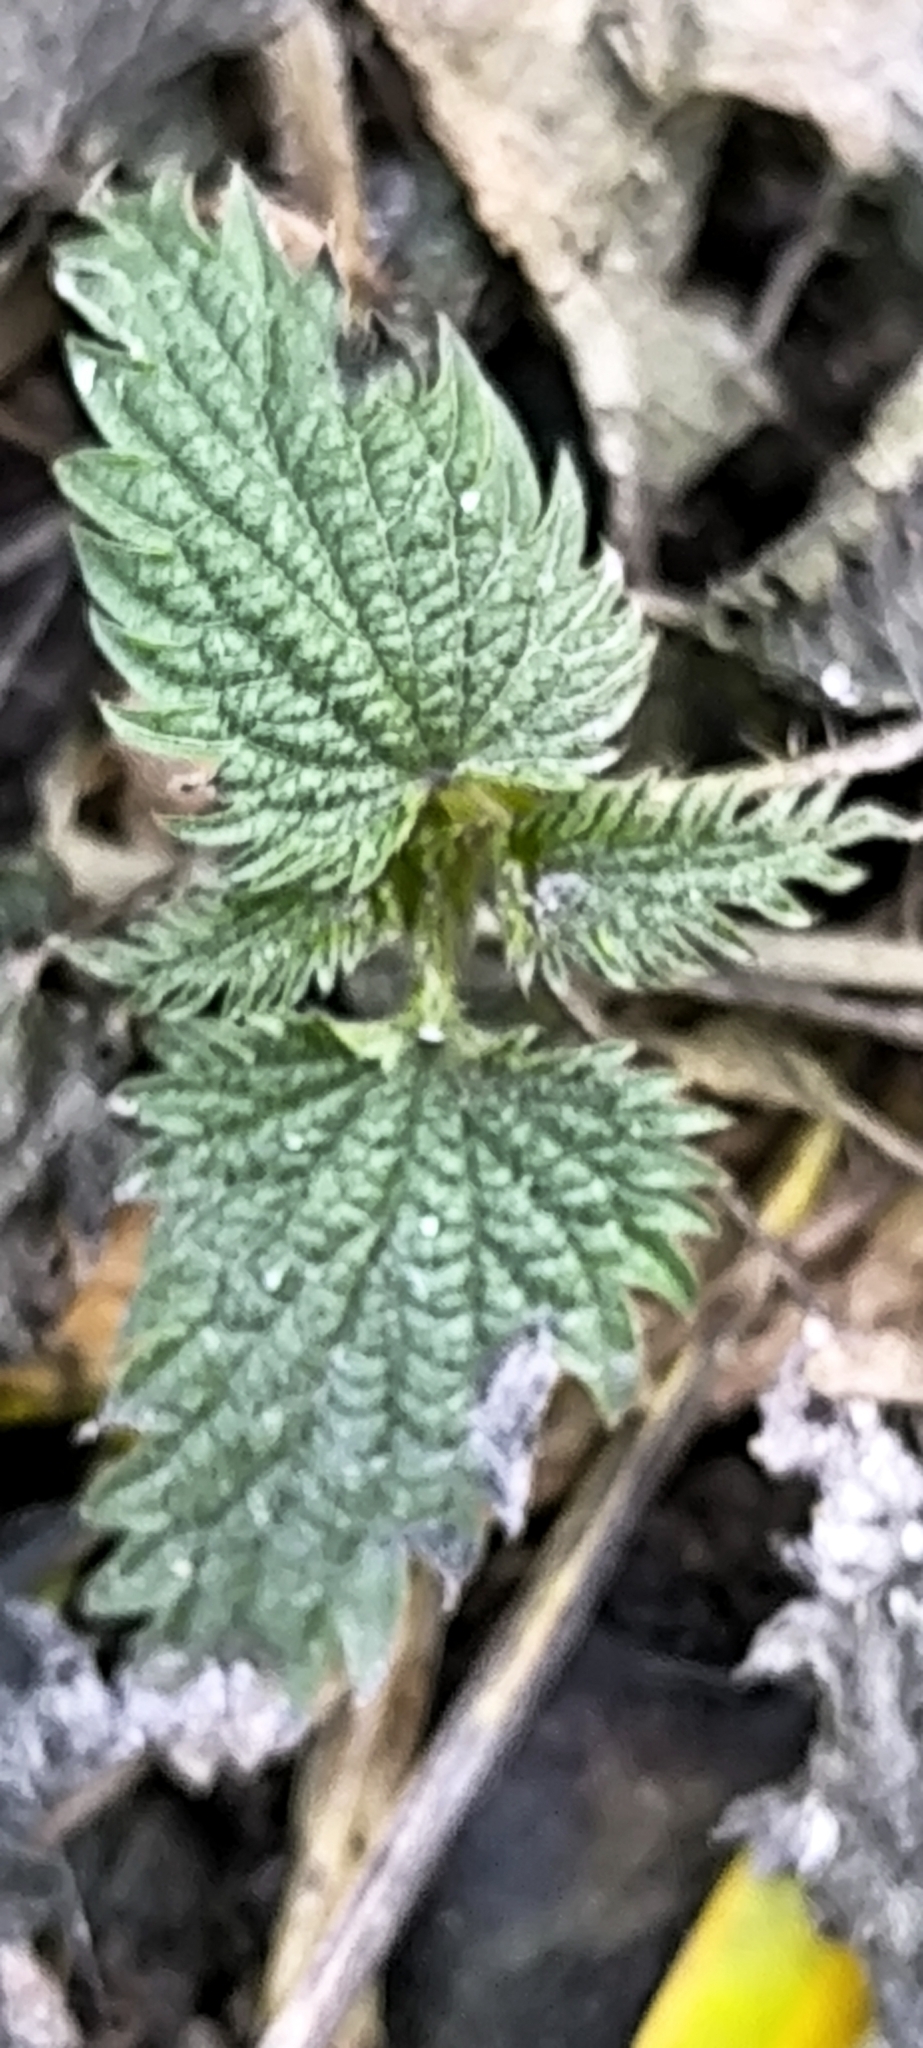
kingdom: Plantae
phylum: Tracheophyta
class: Magnoliopsida
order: Rosales
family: Urticaceae
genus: Urtica
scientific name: Urtica dioica
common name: Common nettle
